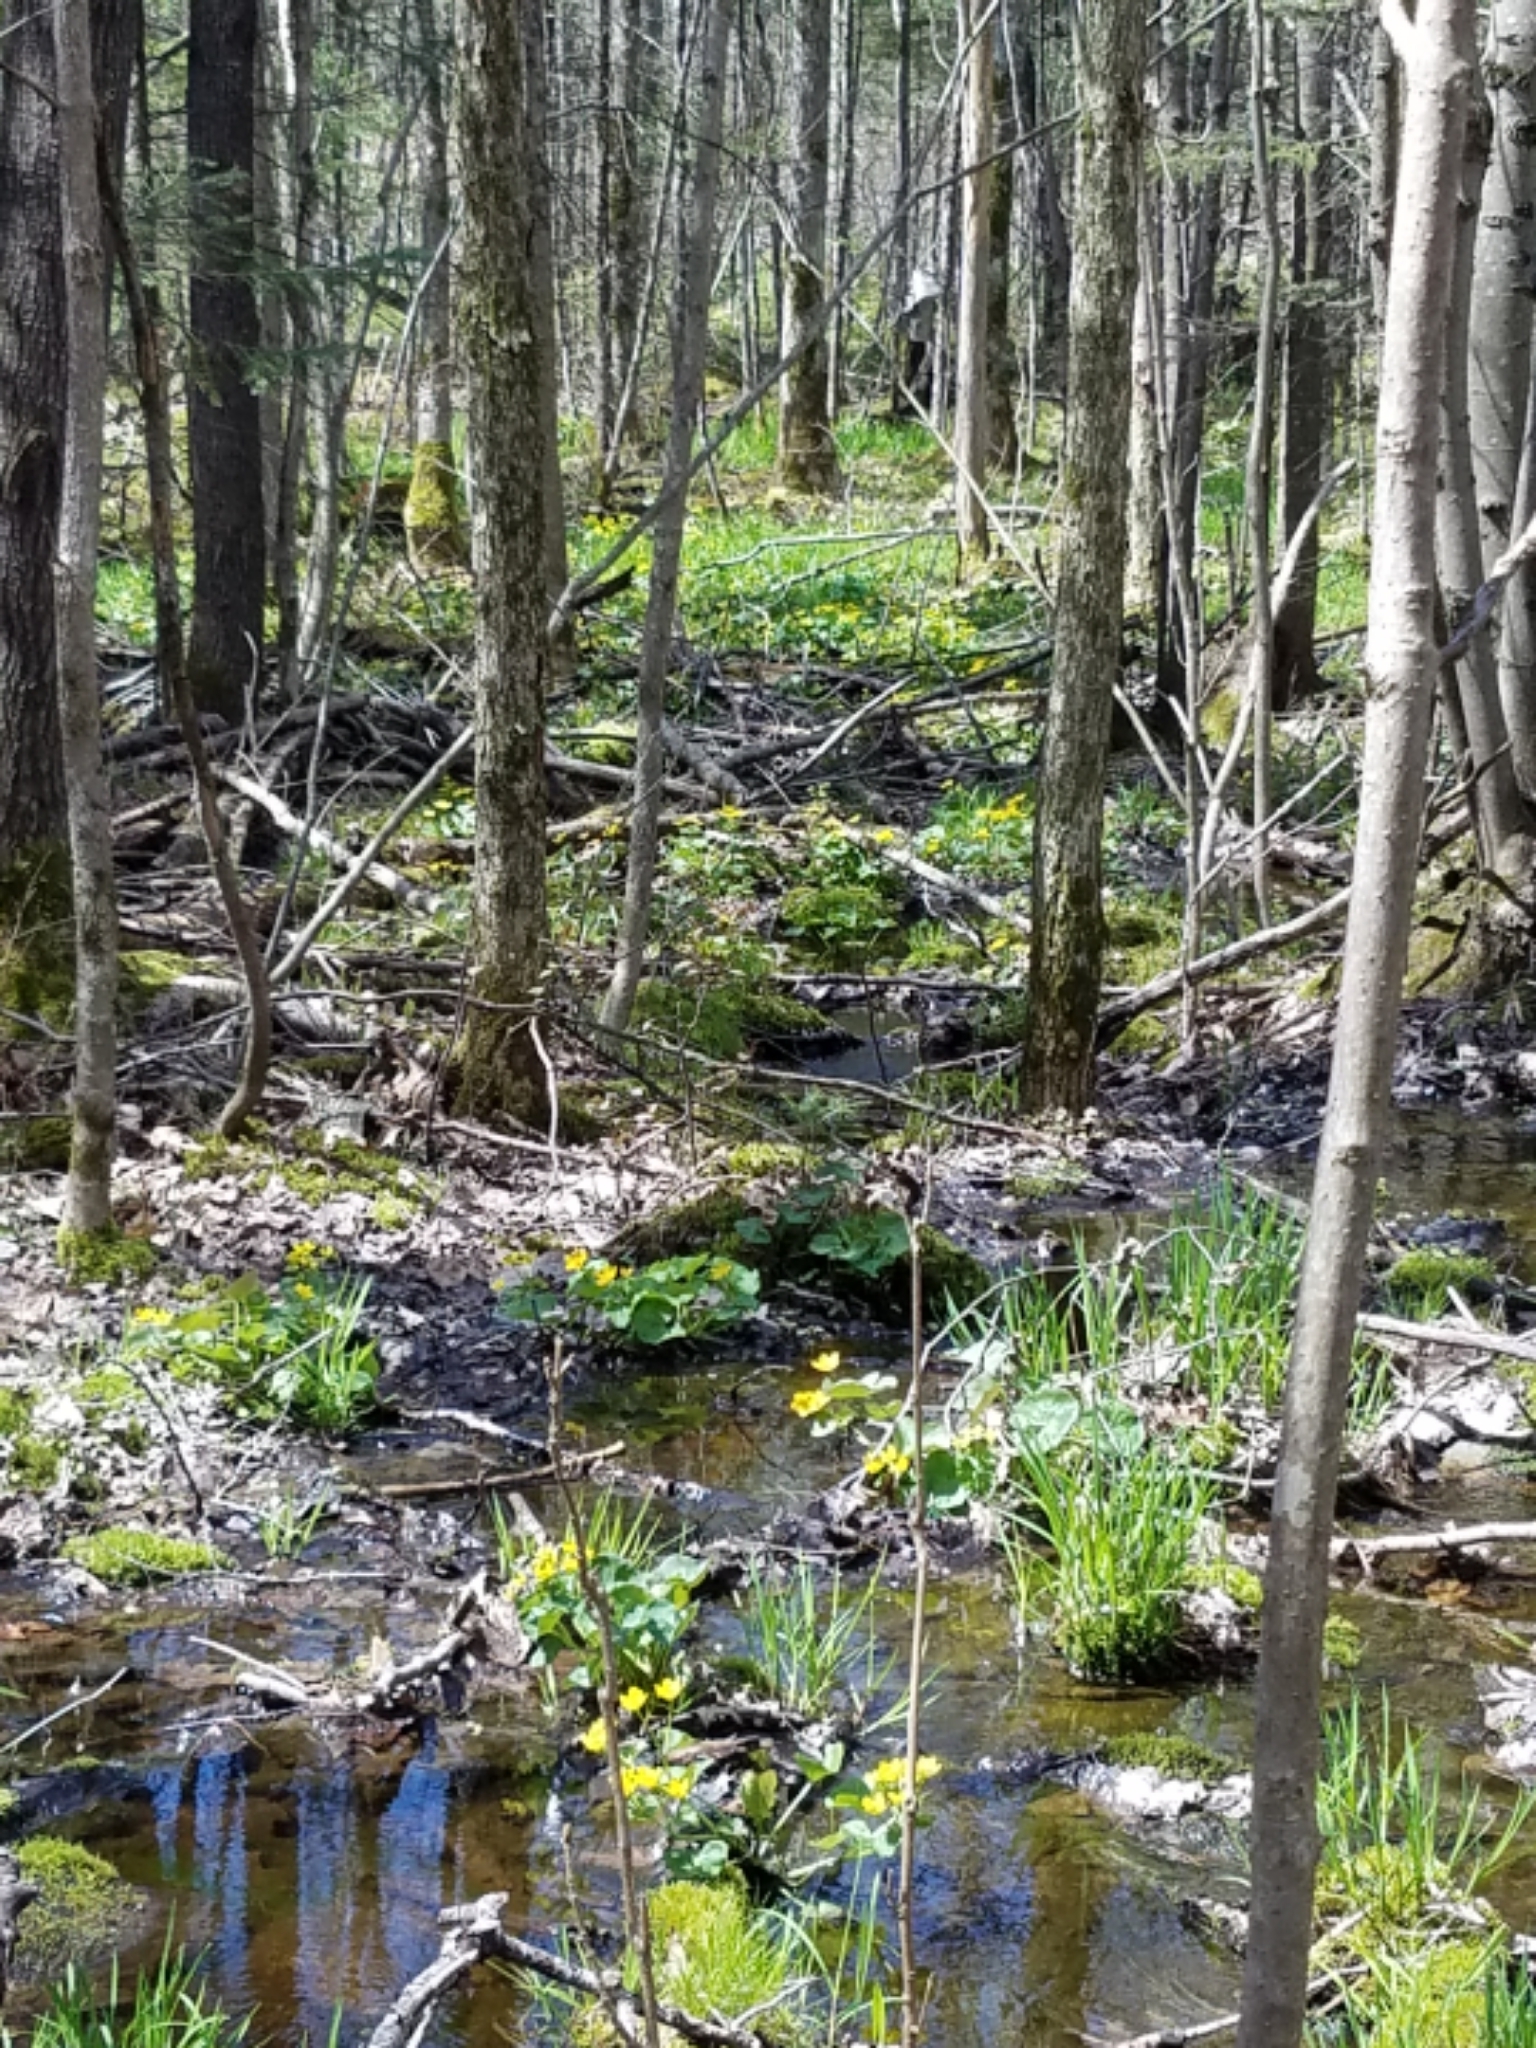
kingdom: Plantae
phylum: Tracheophyta
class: Magnoliopsida
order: Ranunculales
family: Ranunculaceae
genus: Caltha
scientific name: Caltha palustris
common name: Marsh marigold
